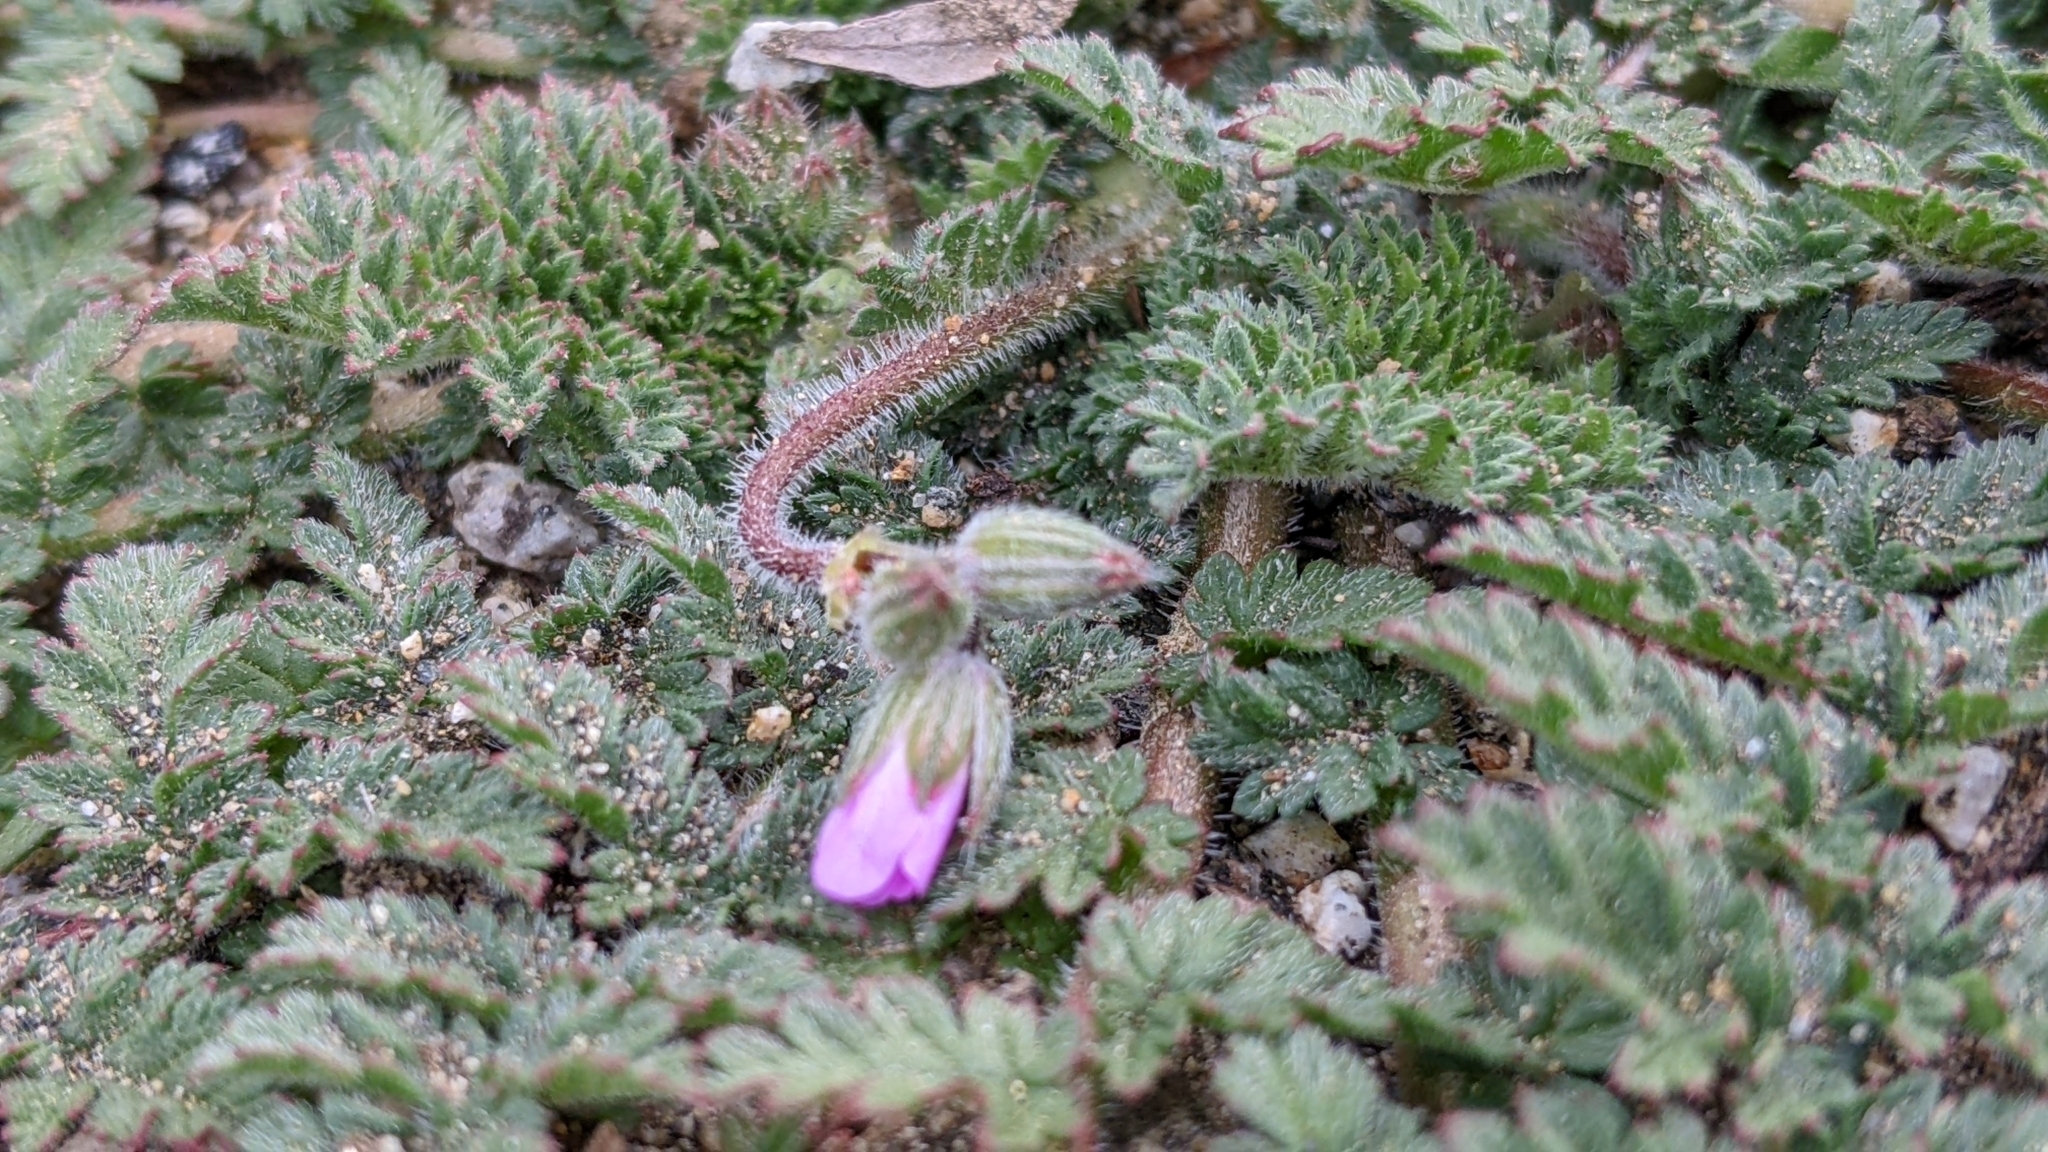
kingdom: Plantae
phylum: Tracheophyta
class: Magnoliopsida
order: Geraniales
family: Geraniaceae
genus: Erodium
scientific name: Erodium cicutarium
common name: Common stork's-bill
